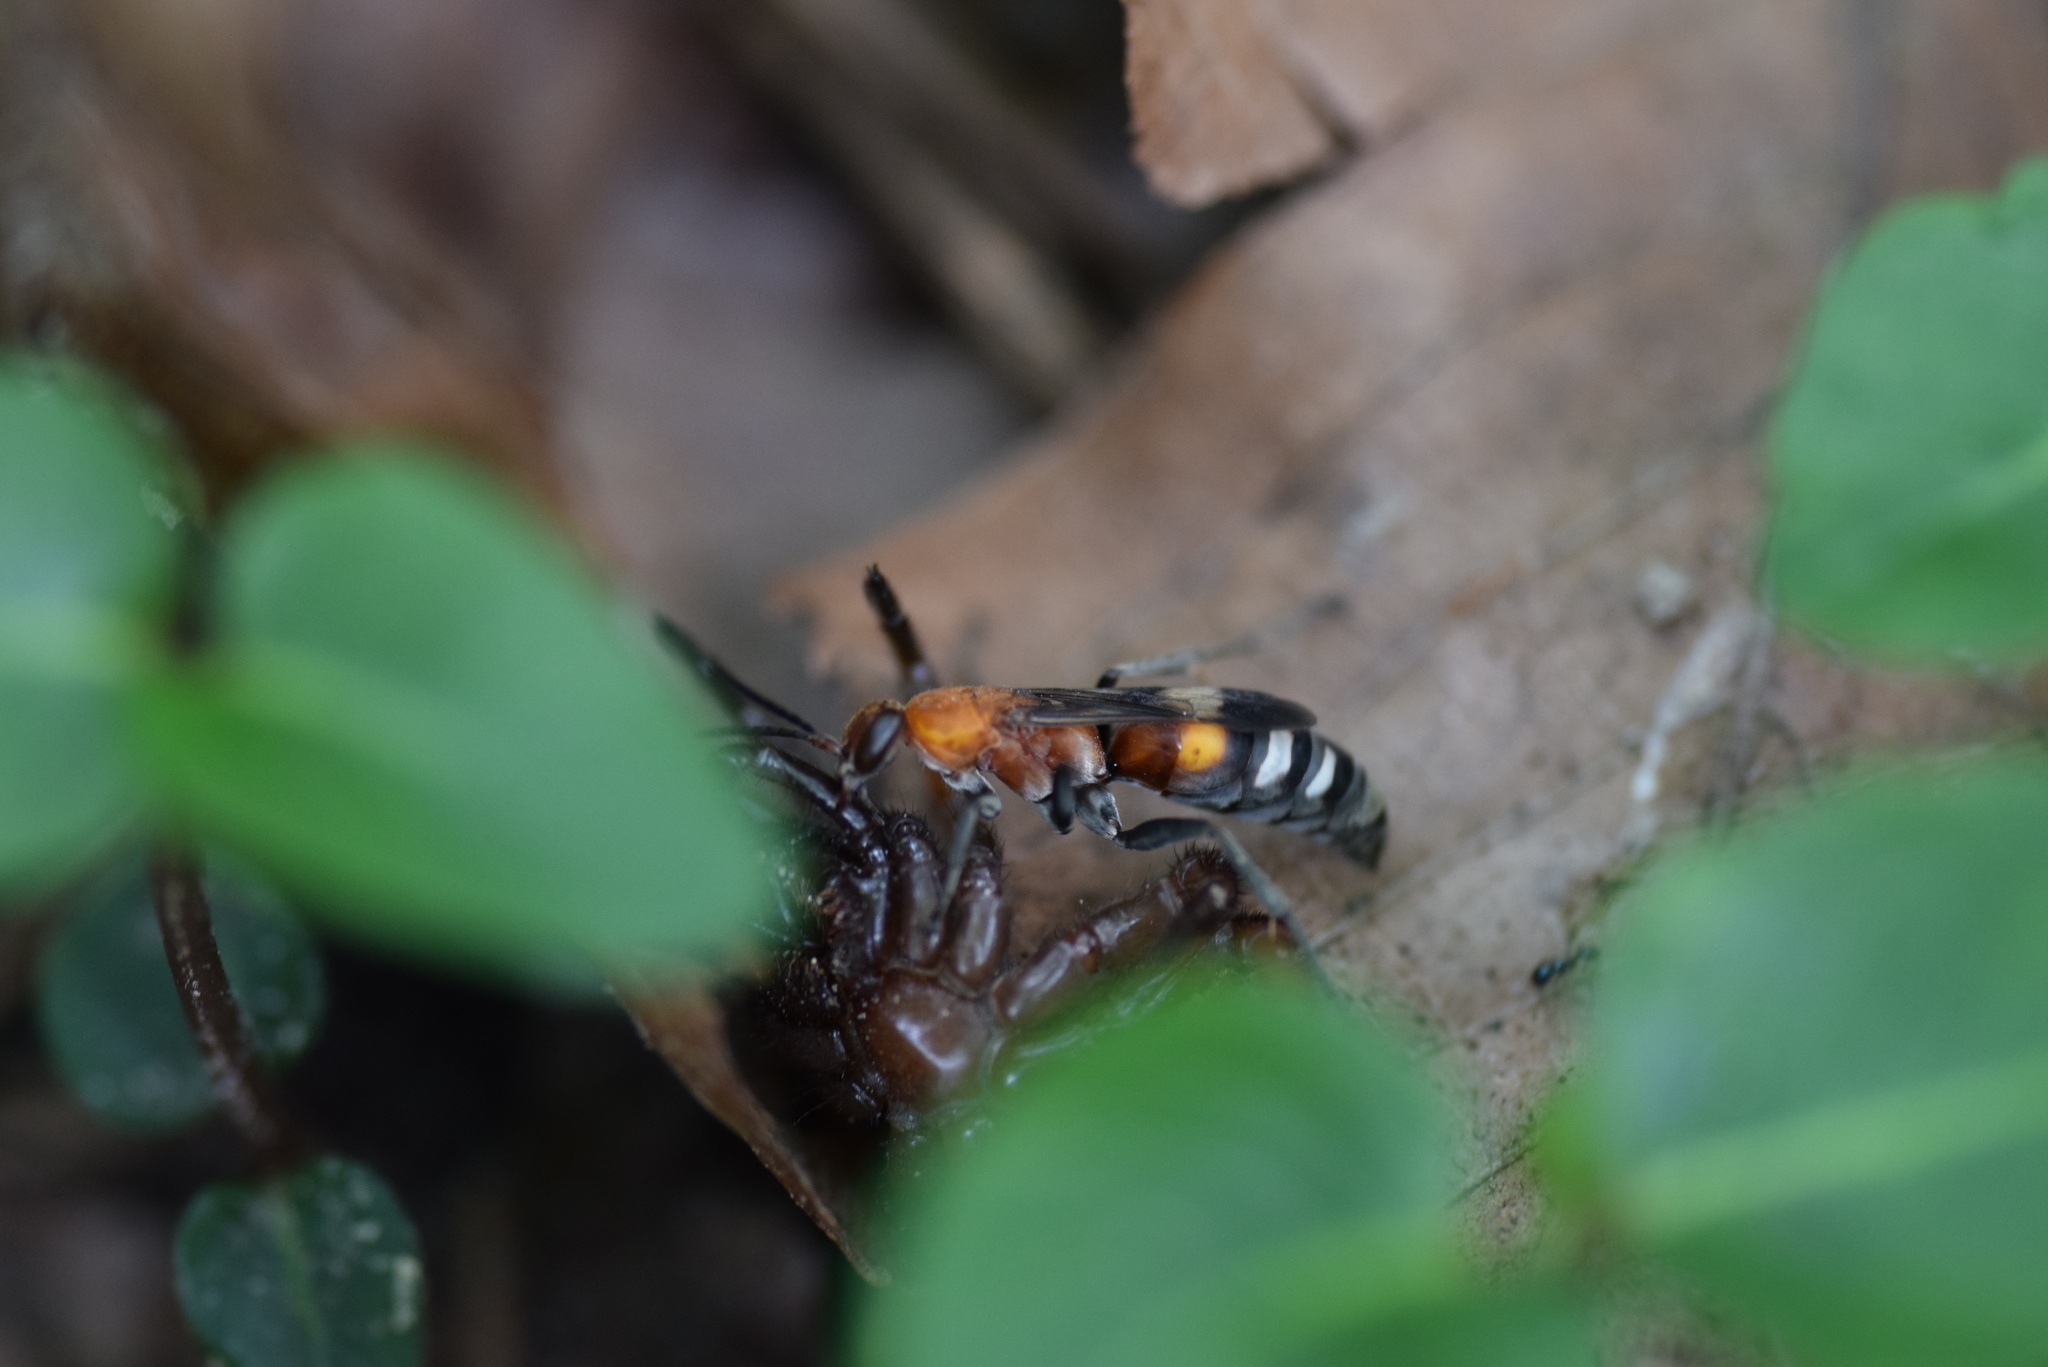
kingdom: Animalia
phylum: Arthropoda
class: Insecta
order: Hymenoptera
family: Pompilidae
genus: Psorthaspis
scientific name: Psorthaspis legata
